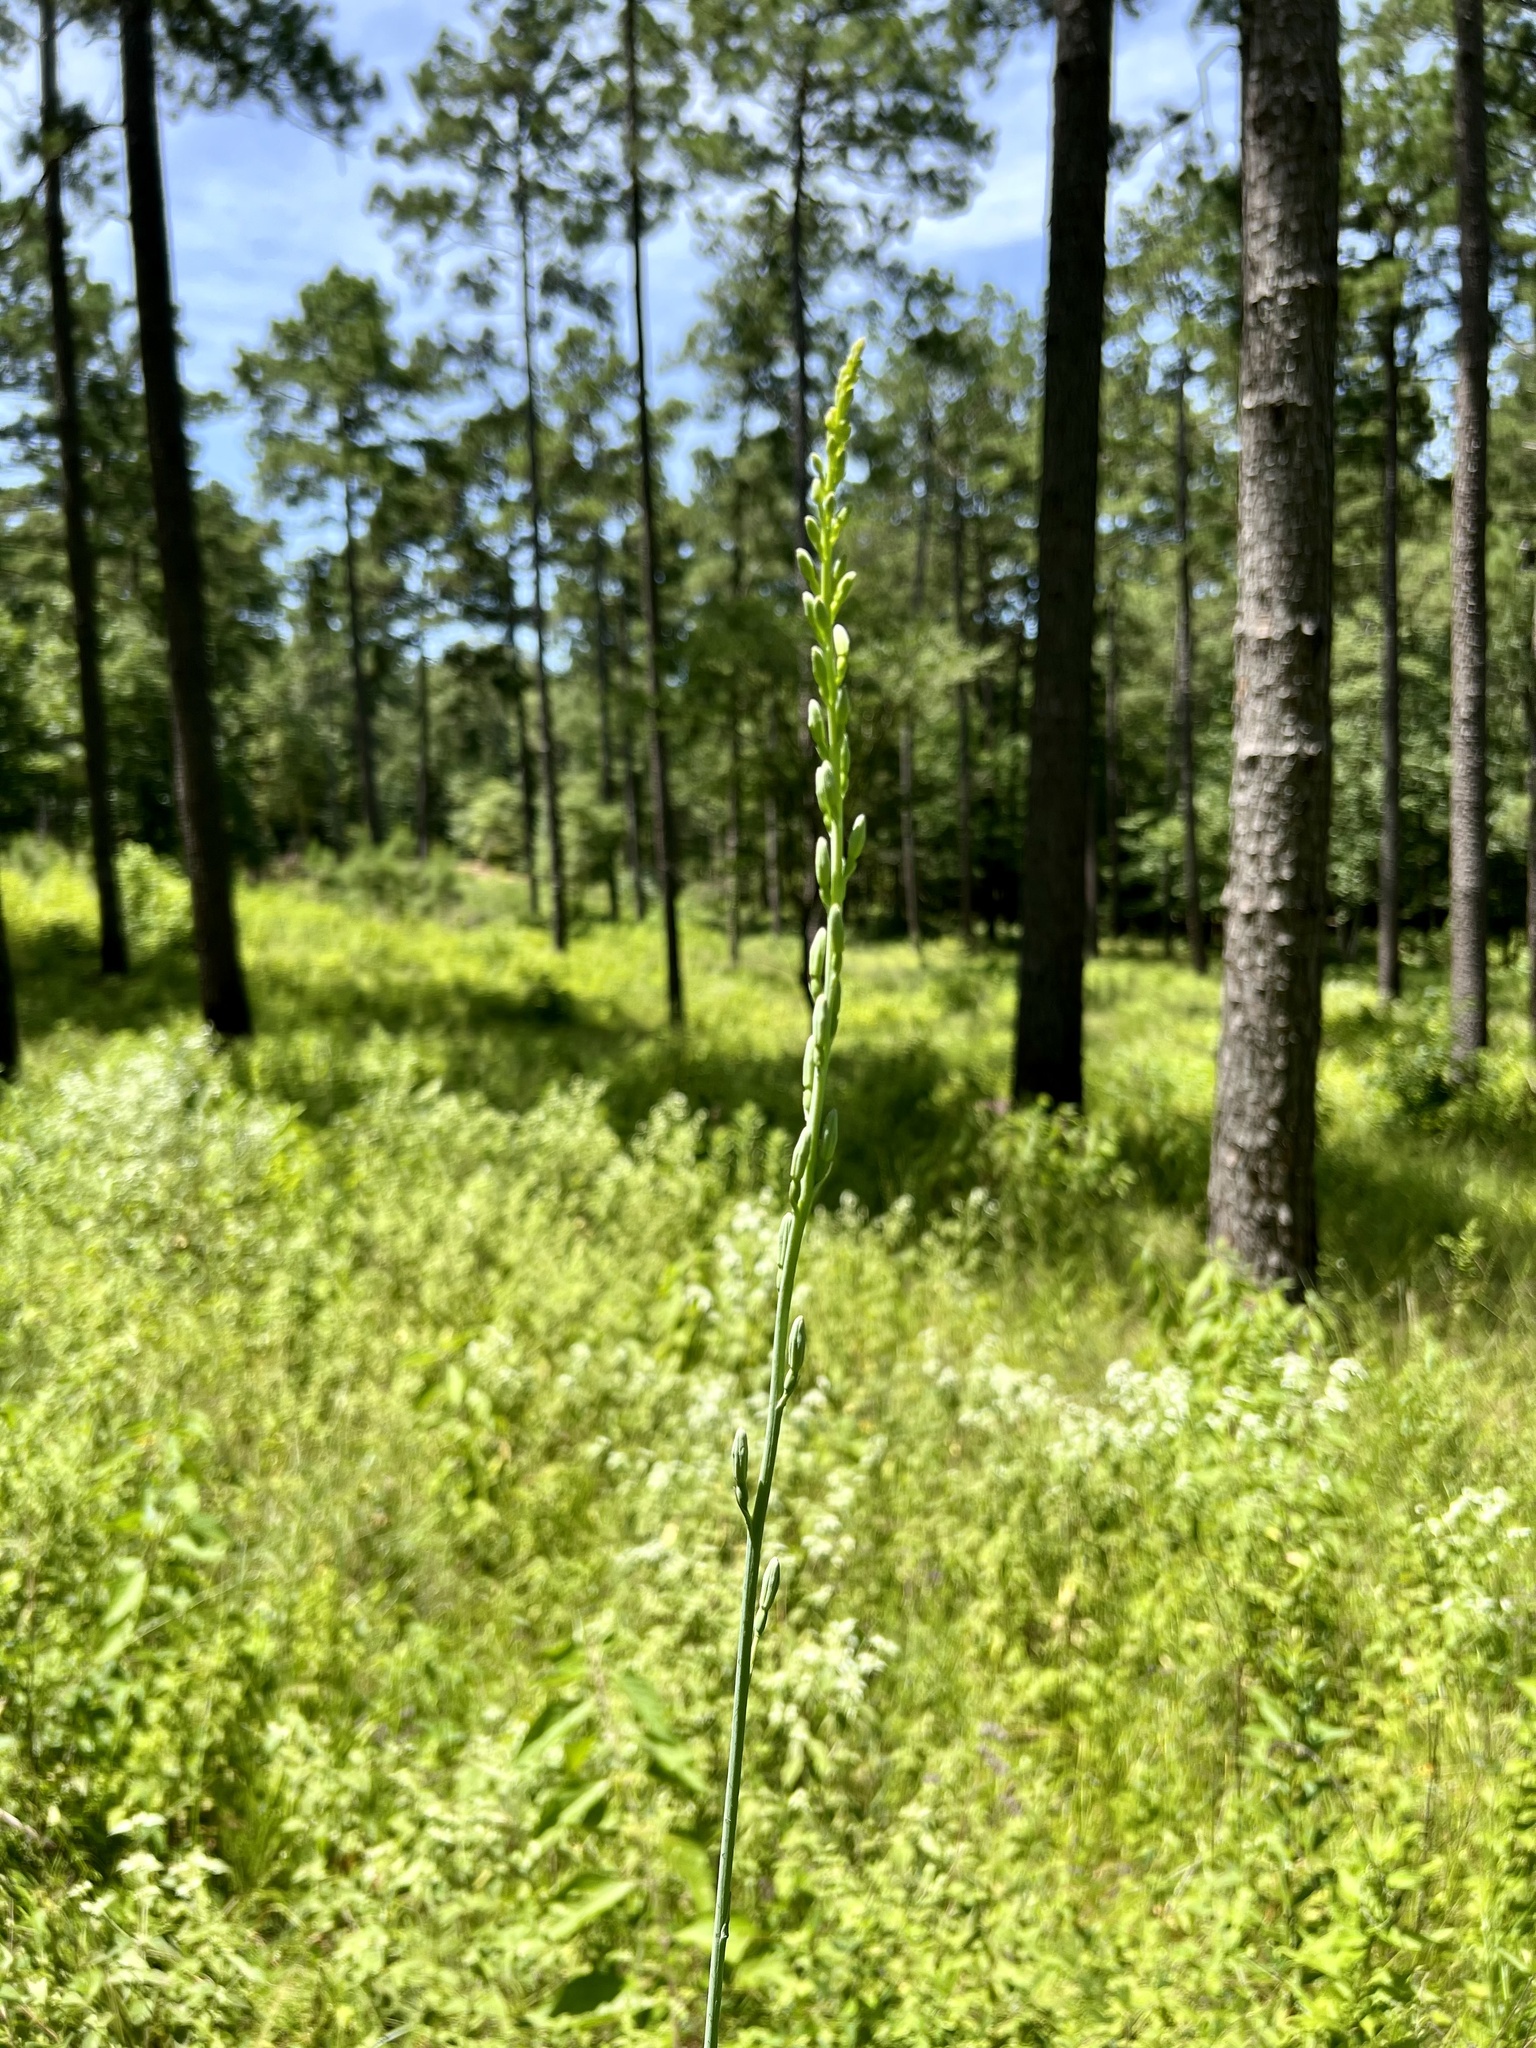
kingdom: Plantae
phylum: Tracheophyta
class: Liliopsida
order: Asparagales
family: Asparagaceae
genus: Agave
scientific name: Agave virginica
